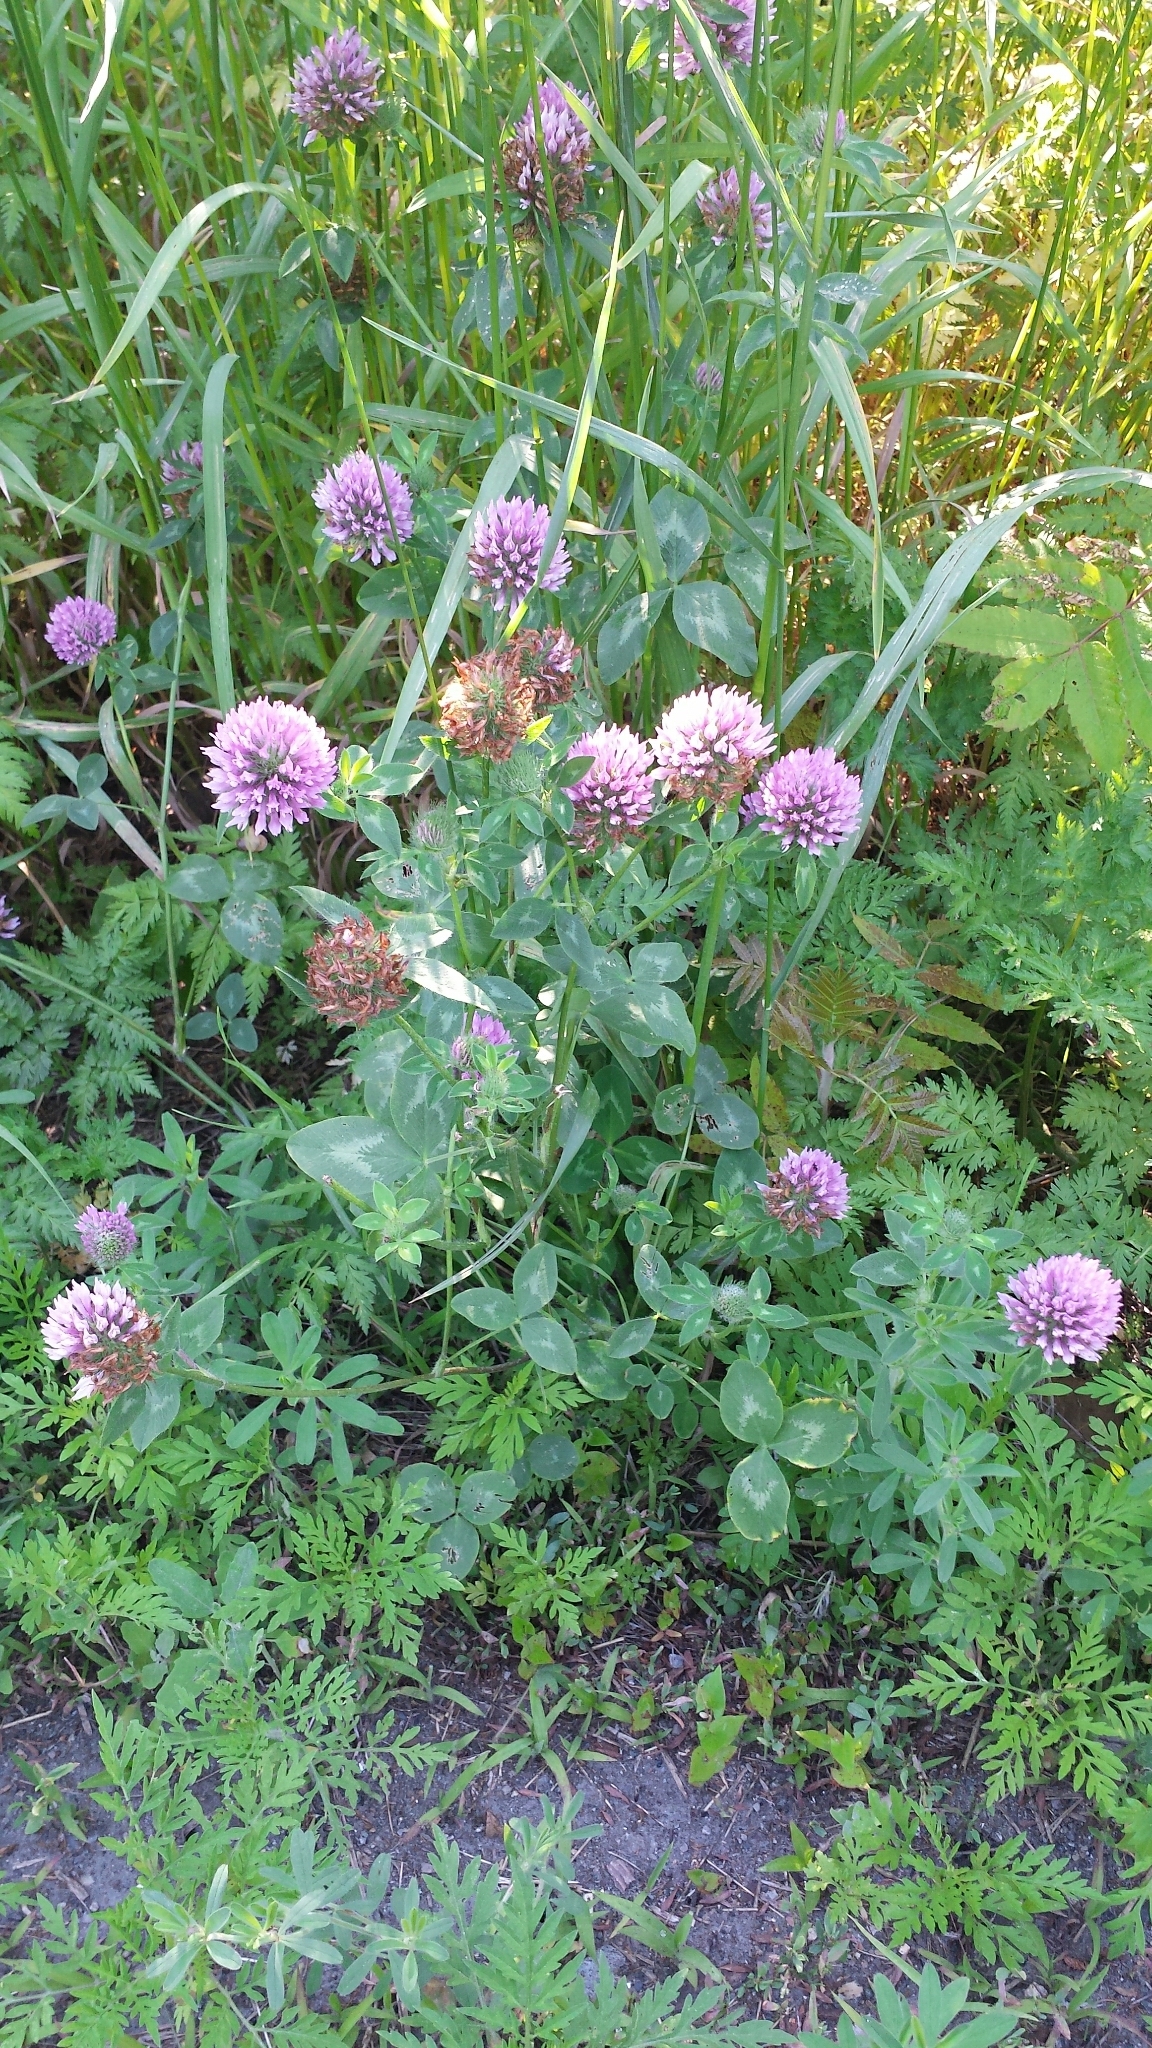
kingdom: Plantae
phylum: Tracheophyta
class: Magnoliopsida
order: Fabales
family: Fabaceae
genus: Trifolium
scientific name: Trifolium pratense
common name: Red clover
